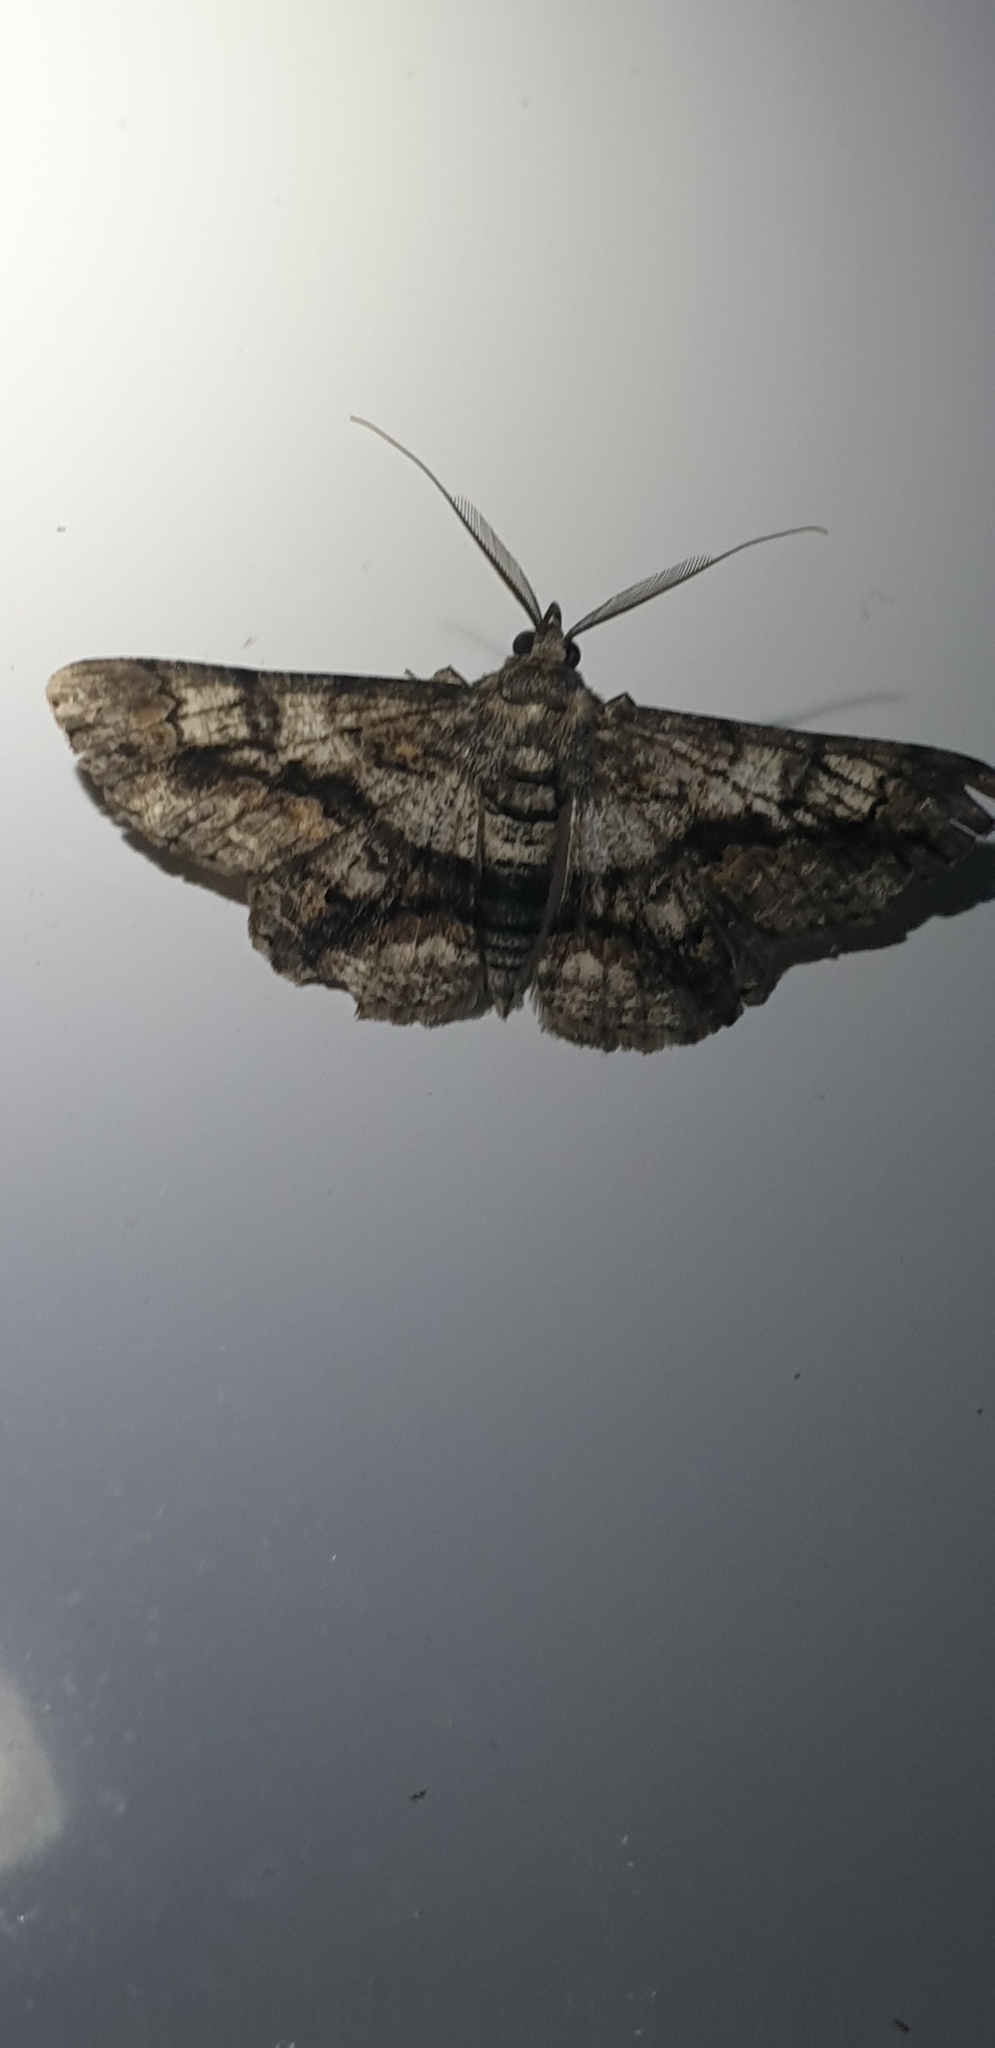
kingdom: Animalia
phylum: Arthropoda
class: Insecta
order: Lepidoptera
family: Geometridae
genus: Cleora
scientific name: Cleora injectaria
